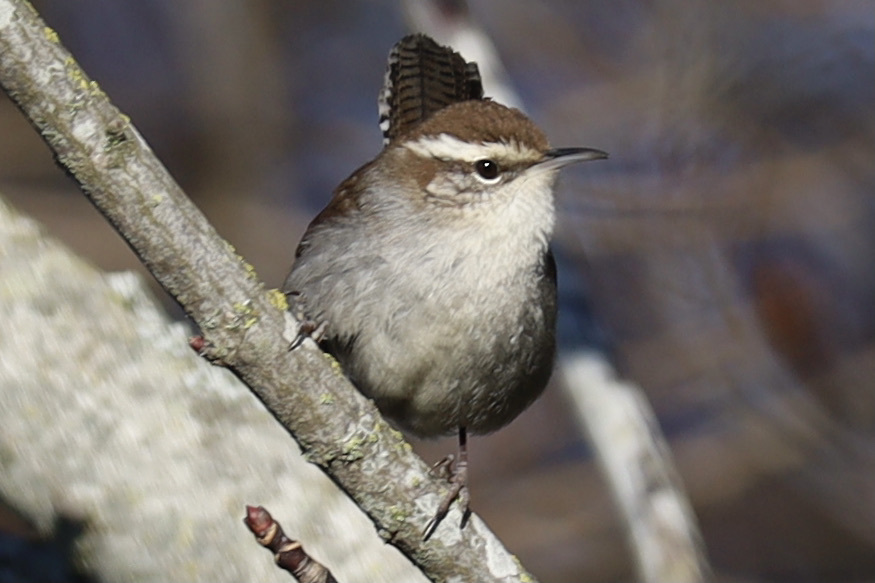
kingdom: Animalia
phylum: Chordata
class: Aves
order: Passeriformes
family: Troglodytidae
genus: Thryomanes
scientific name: Thryomanes bewickii
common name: Bewick's wren
